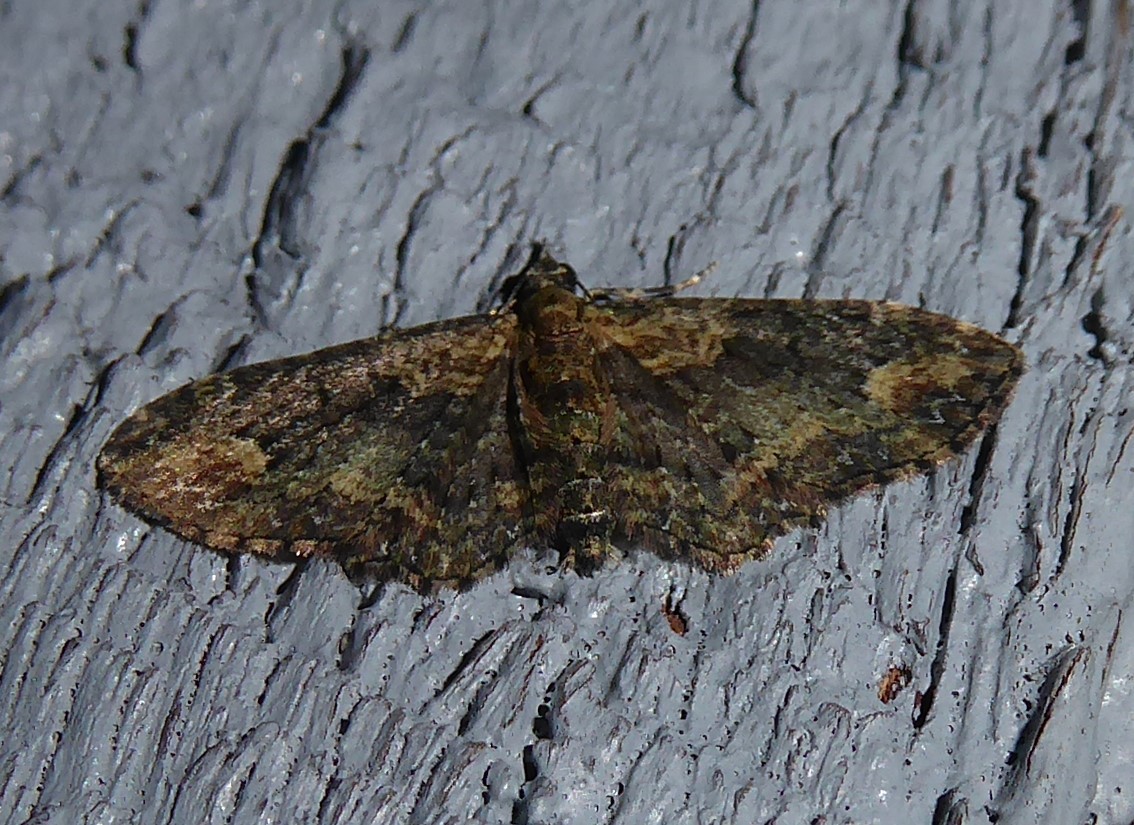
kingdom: Animalia
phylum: Arthropoda
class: Insecta
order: Lepidoptera
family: Geometridae
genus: Pasiphilodes
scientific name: Pasiphilodes testulata
